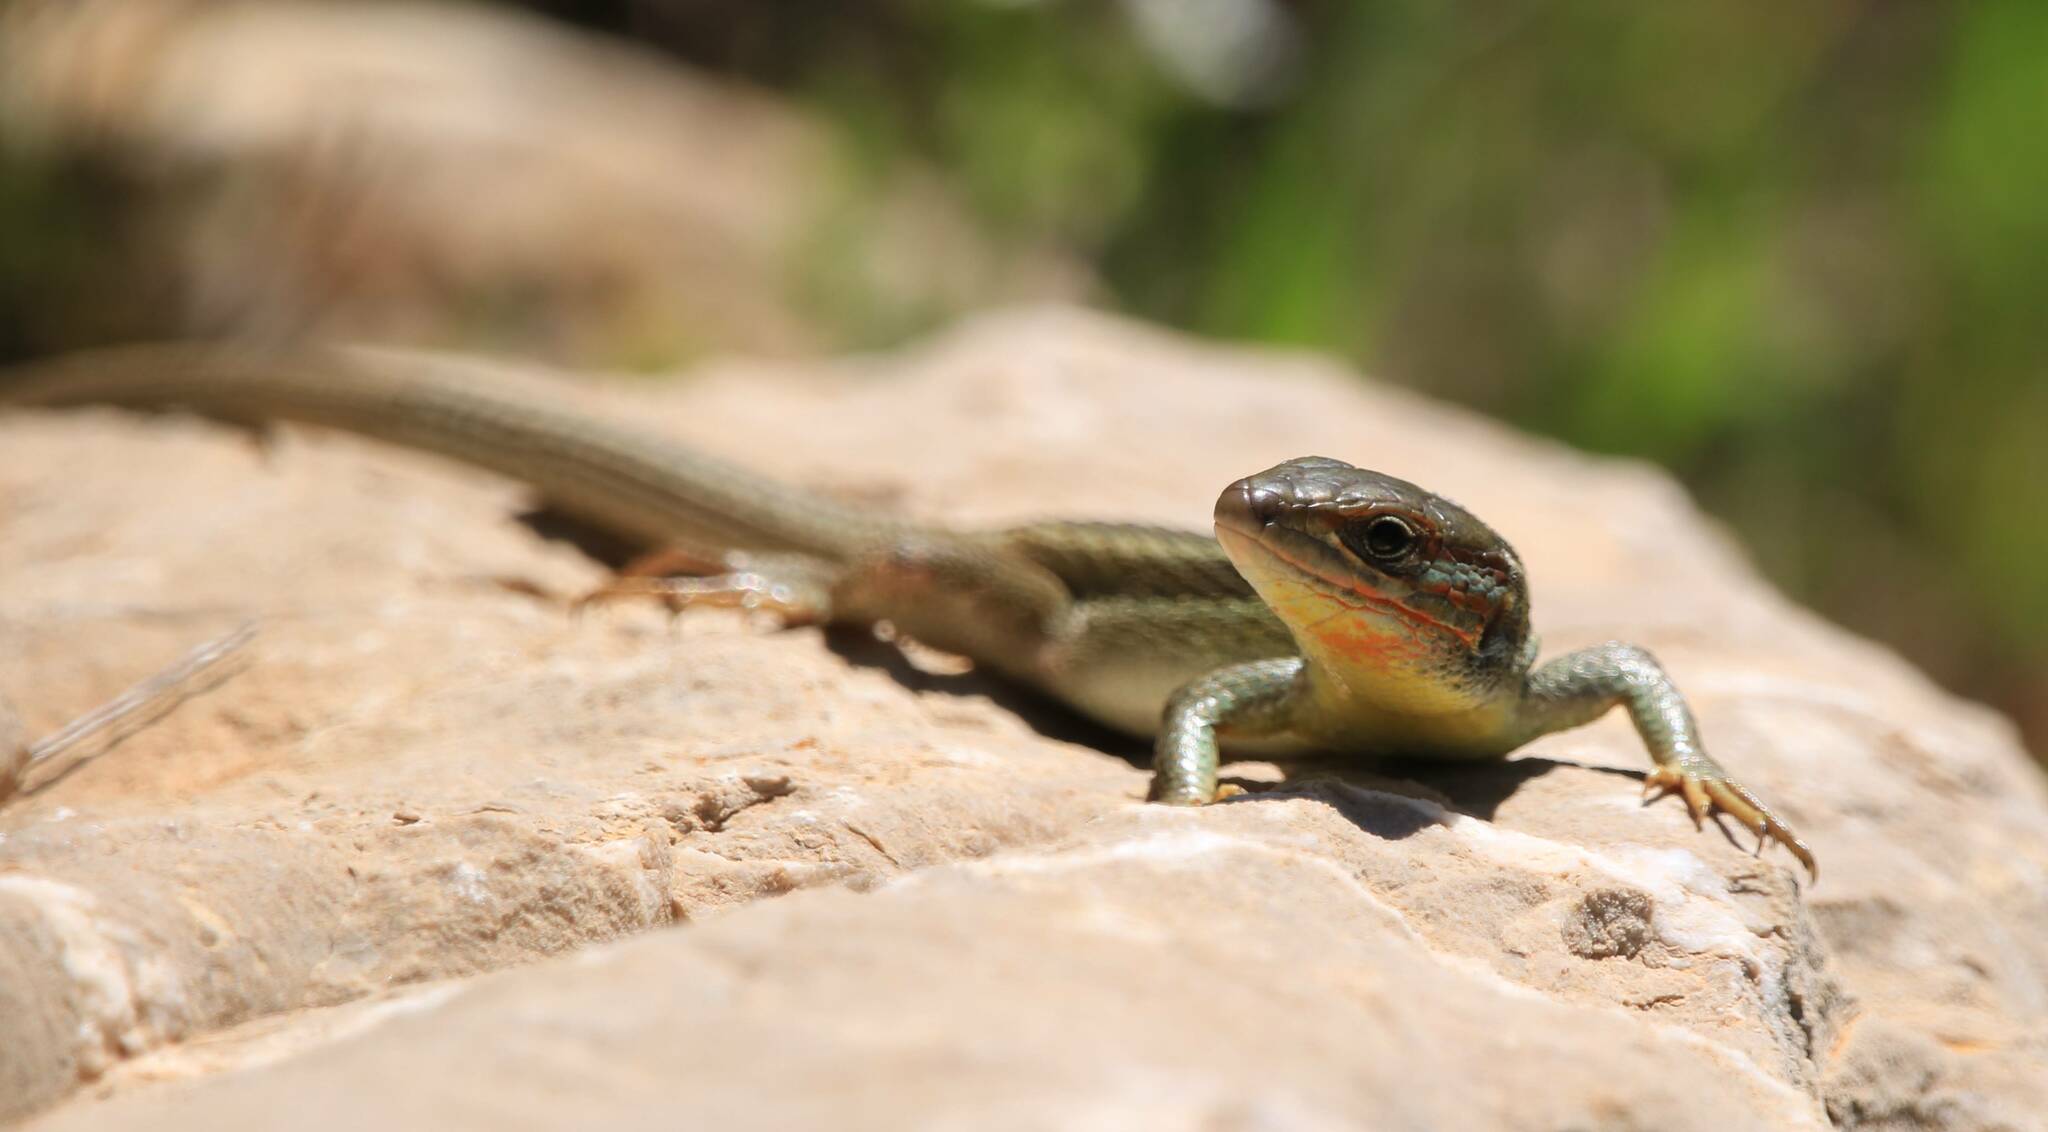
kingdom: Animalia
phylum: Chordata
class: Squamata
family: Lacertidae
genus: Psammodromus
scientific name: Psammodromus algirus
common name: Algerian psammodromus
